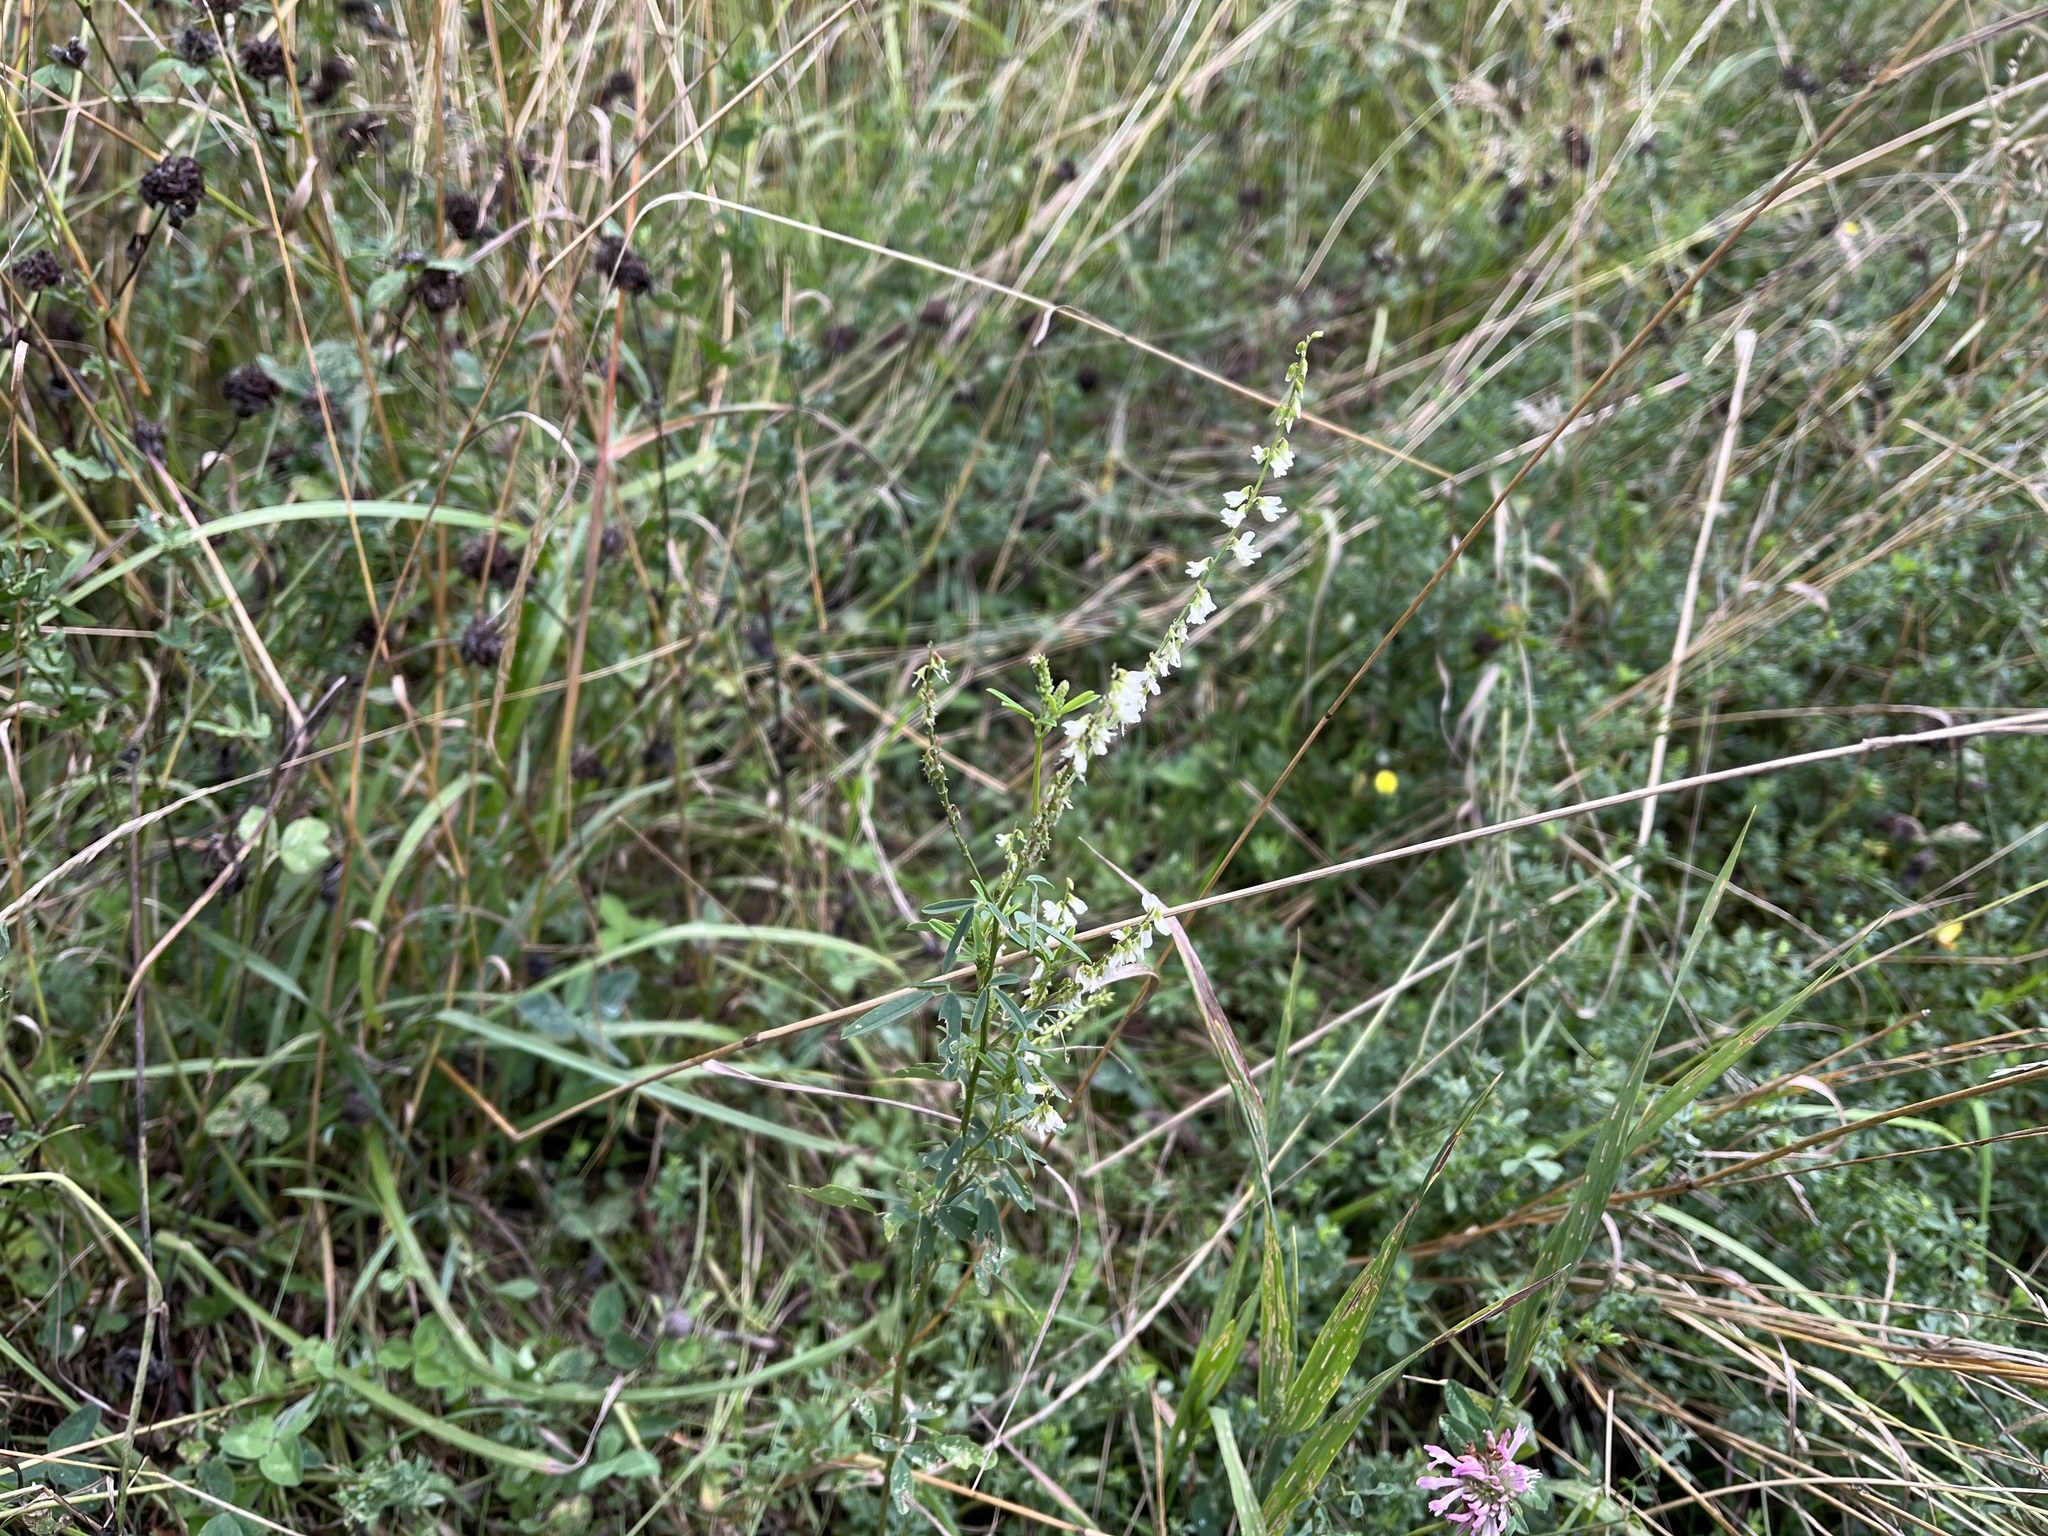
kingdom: Plantae
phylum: Tracheophyta
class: Magnoliopsida
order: Fabales
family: Fabaceae
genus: Melilotus
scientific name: Melilotus albus
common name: White melilot
